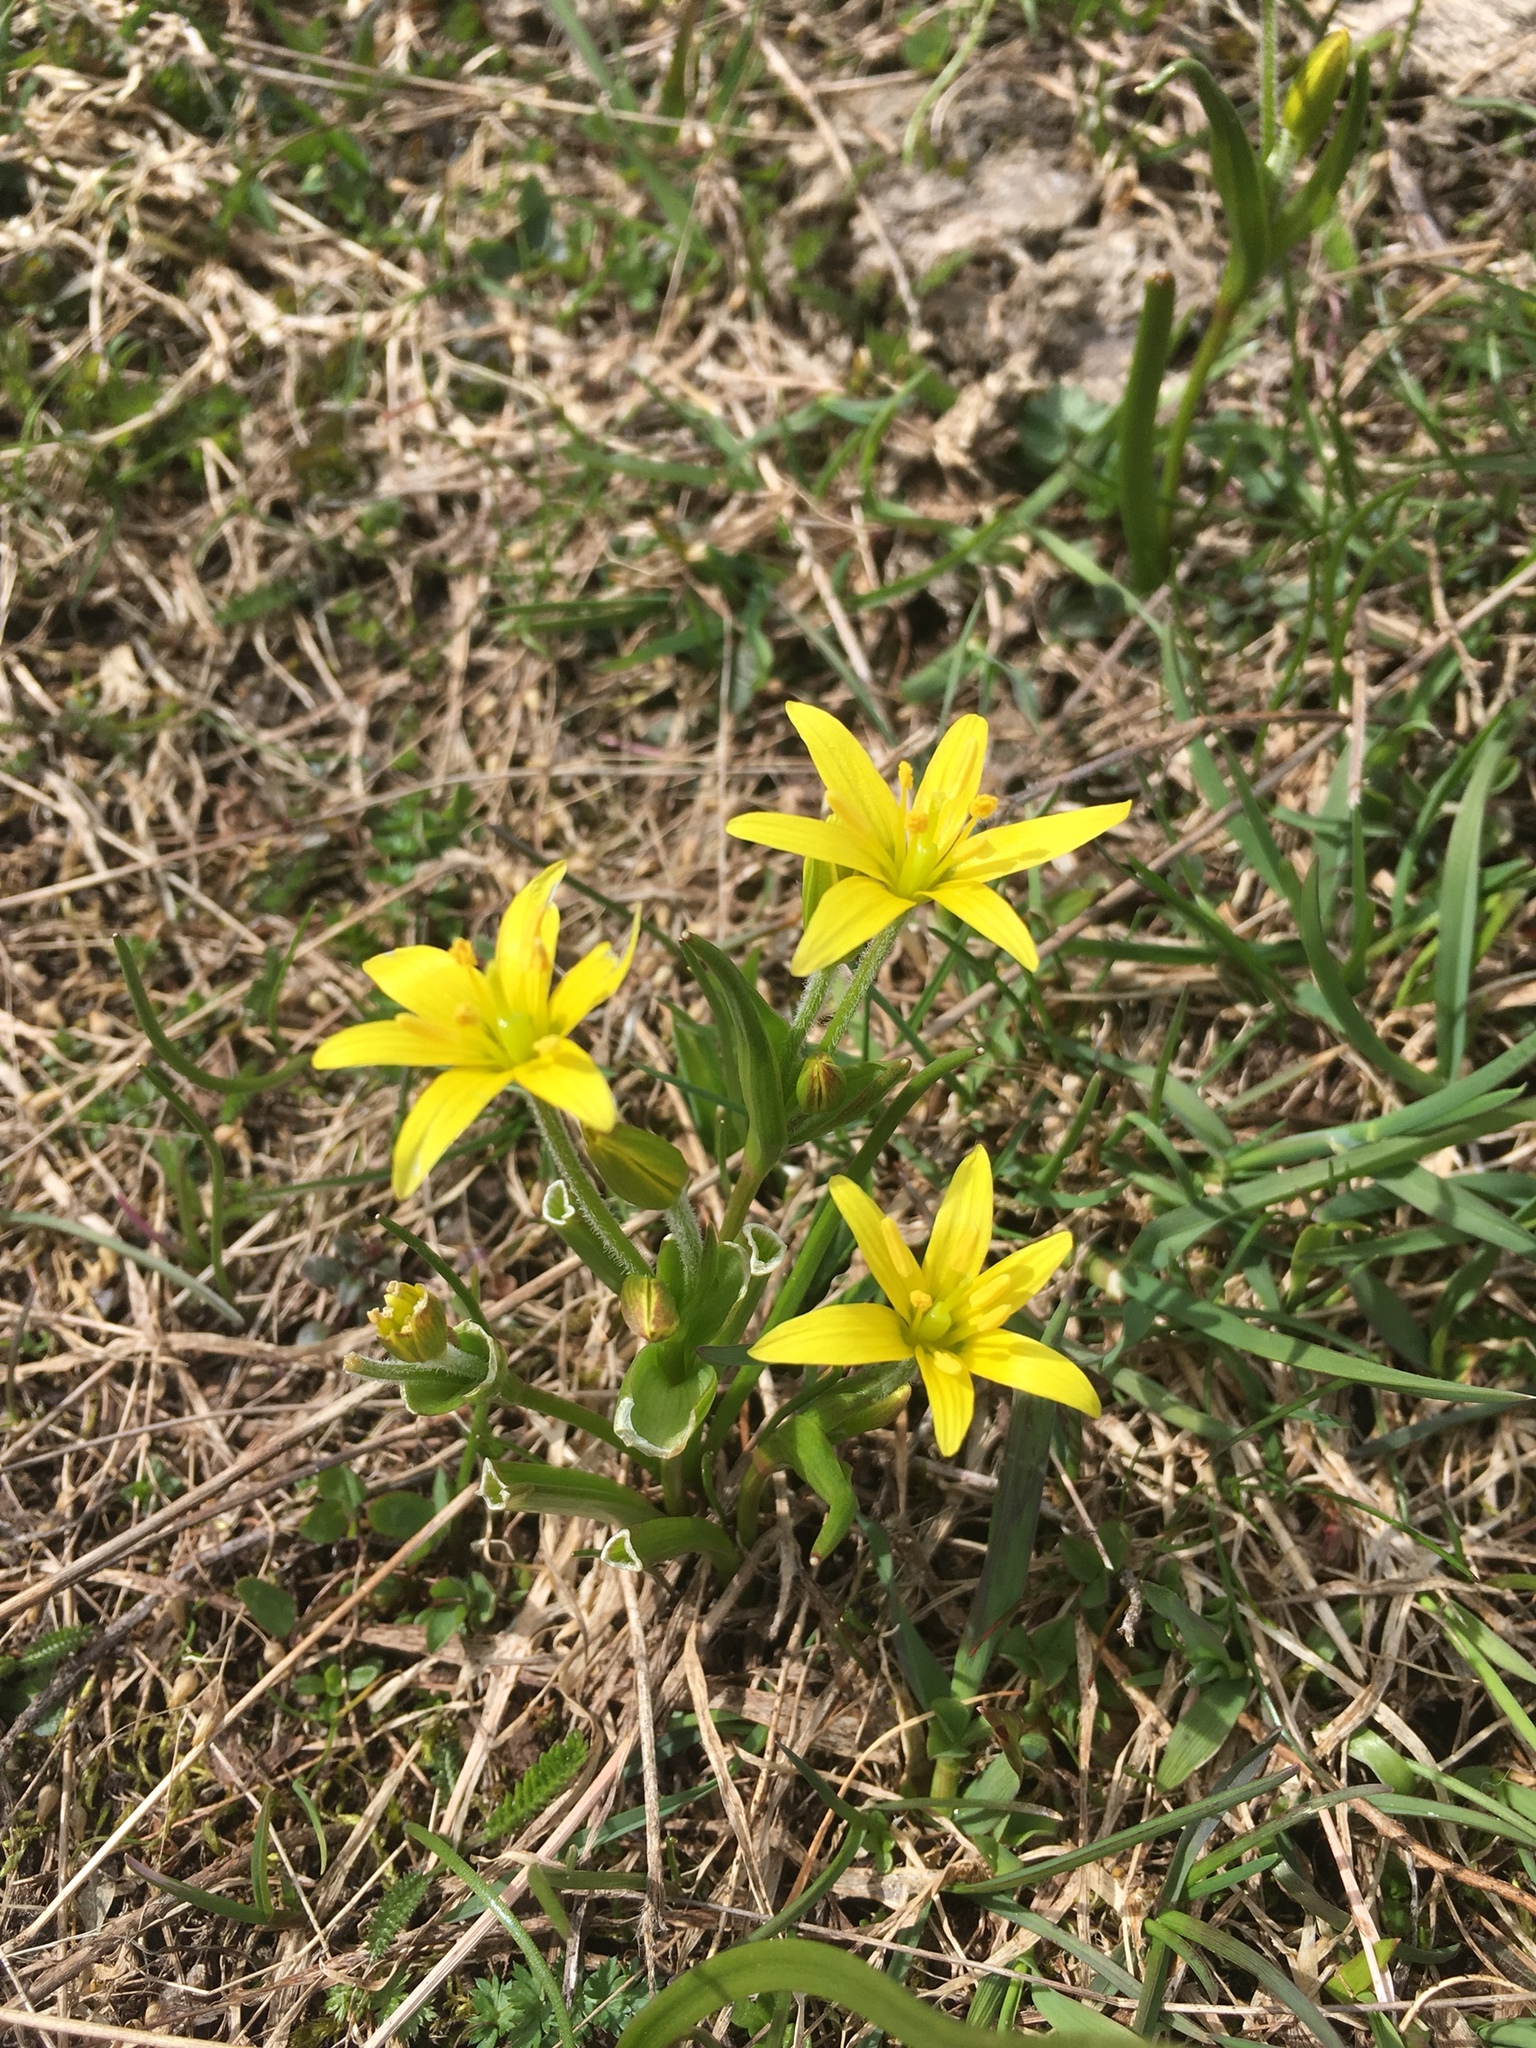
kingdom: Plantae
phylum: Tracheophyta
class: Liliopsida
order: Liliales
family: Liliaceae
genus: Gagea
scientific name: Gagea fragifera
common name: Lily
